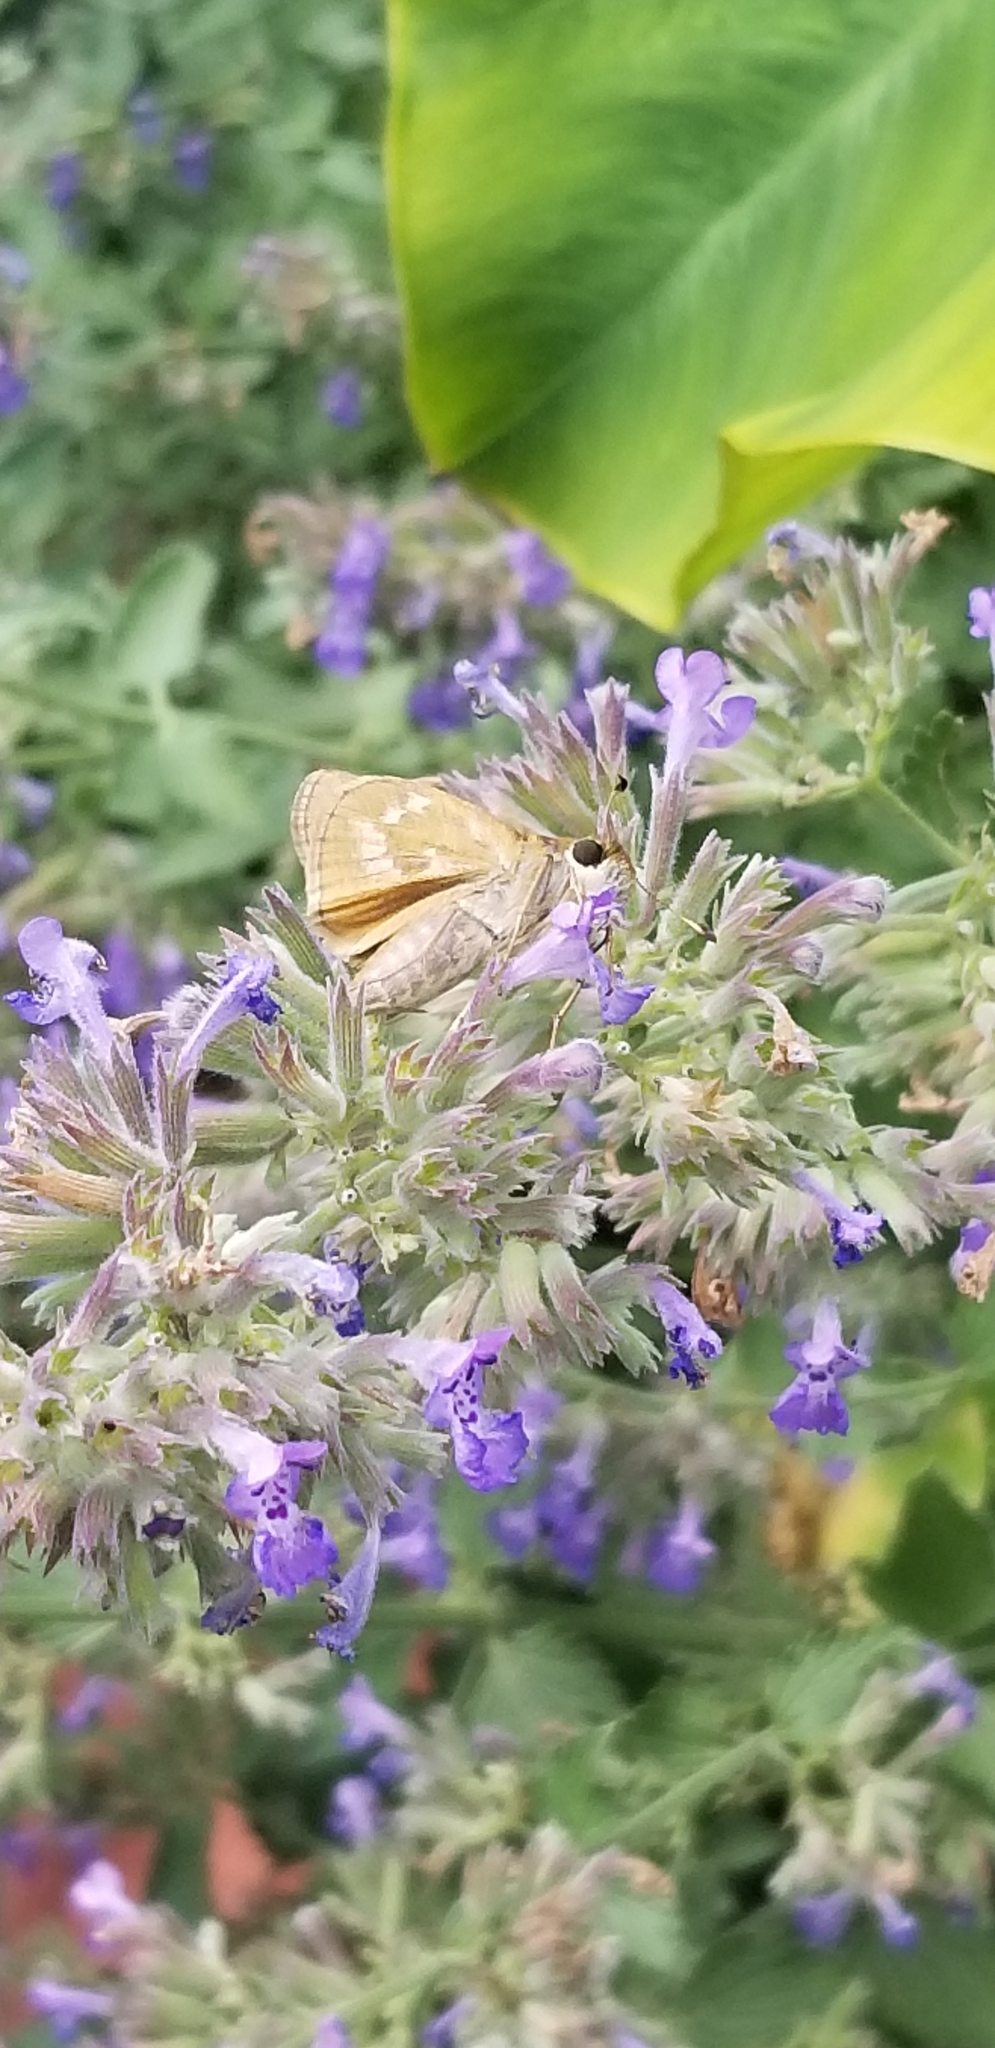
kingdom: Animalia
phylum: Arthropoda
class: Insecta
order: Lepidoptera
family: Hesperiidae
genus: Atalopedes
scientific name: Atalopedes
